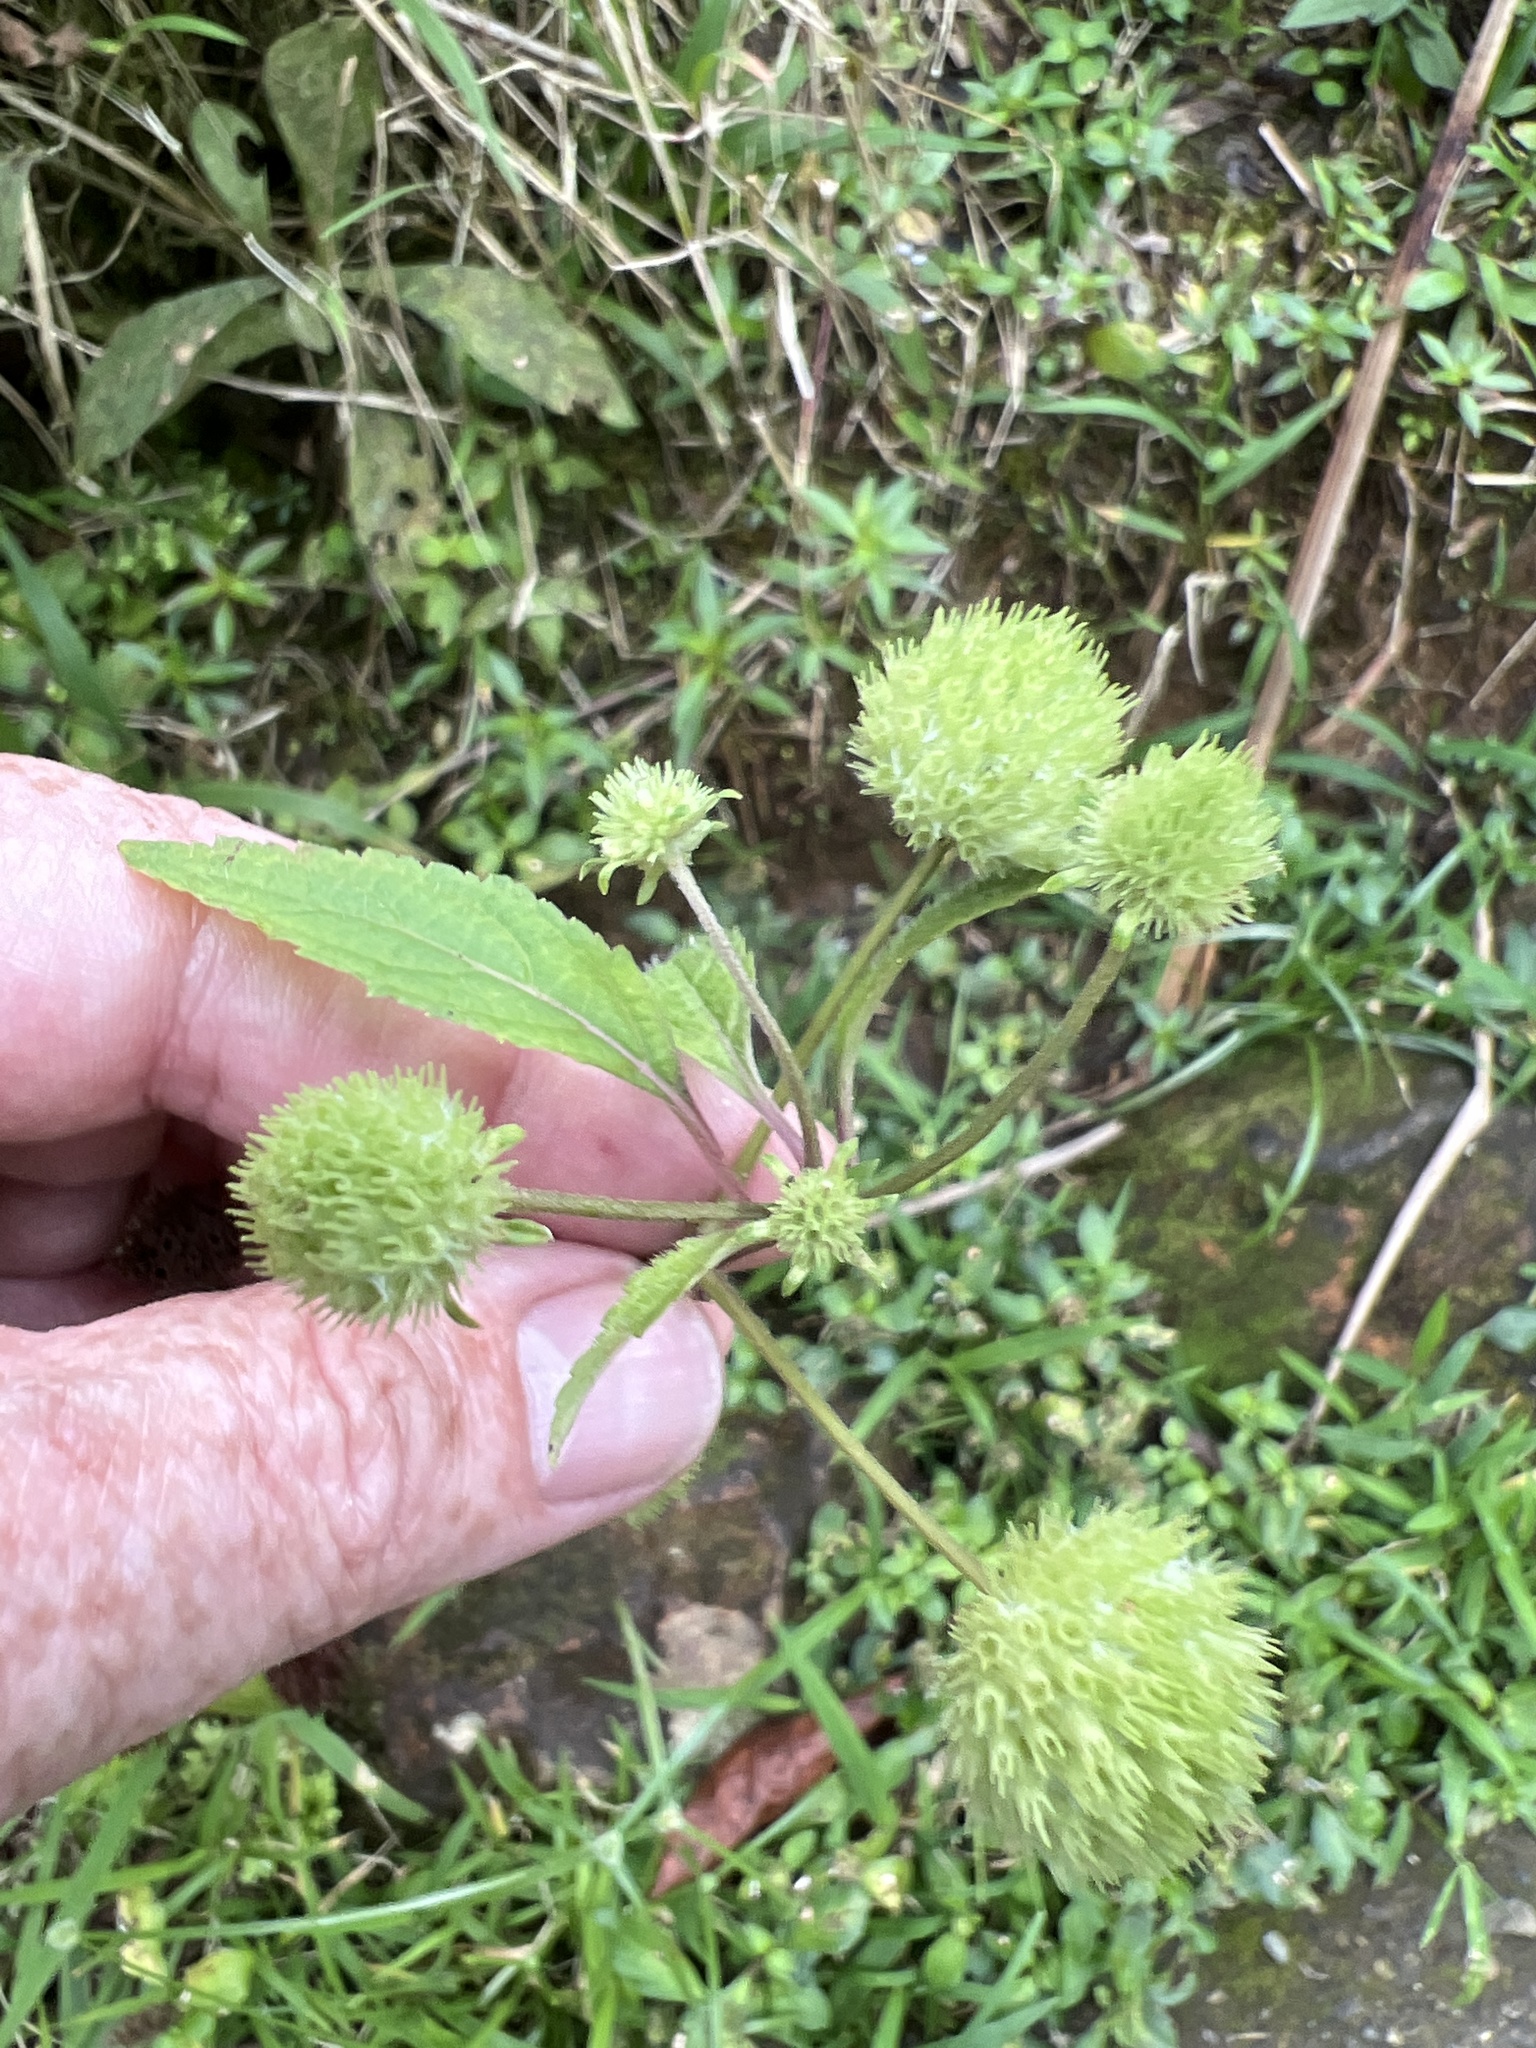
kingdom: Plantae
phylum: Tracheophyta
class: Magnoliopsida
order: Lamiales
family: Lamiaceae
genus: Hyptis
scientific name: Hyptis capitata
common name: False ironwort
